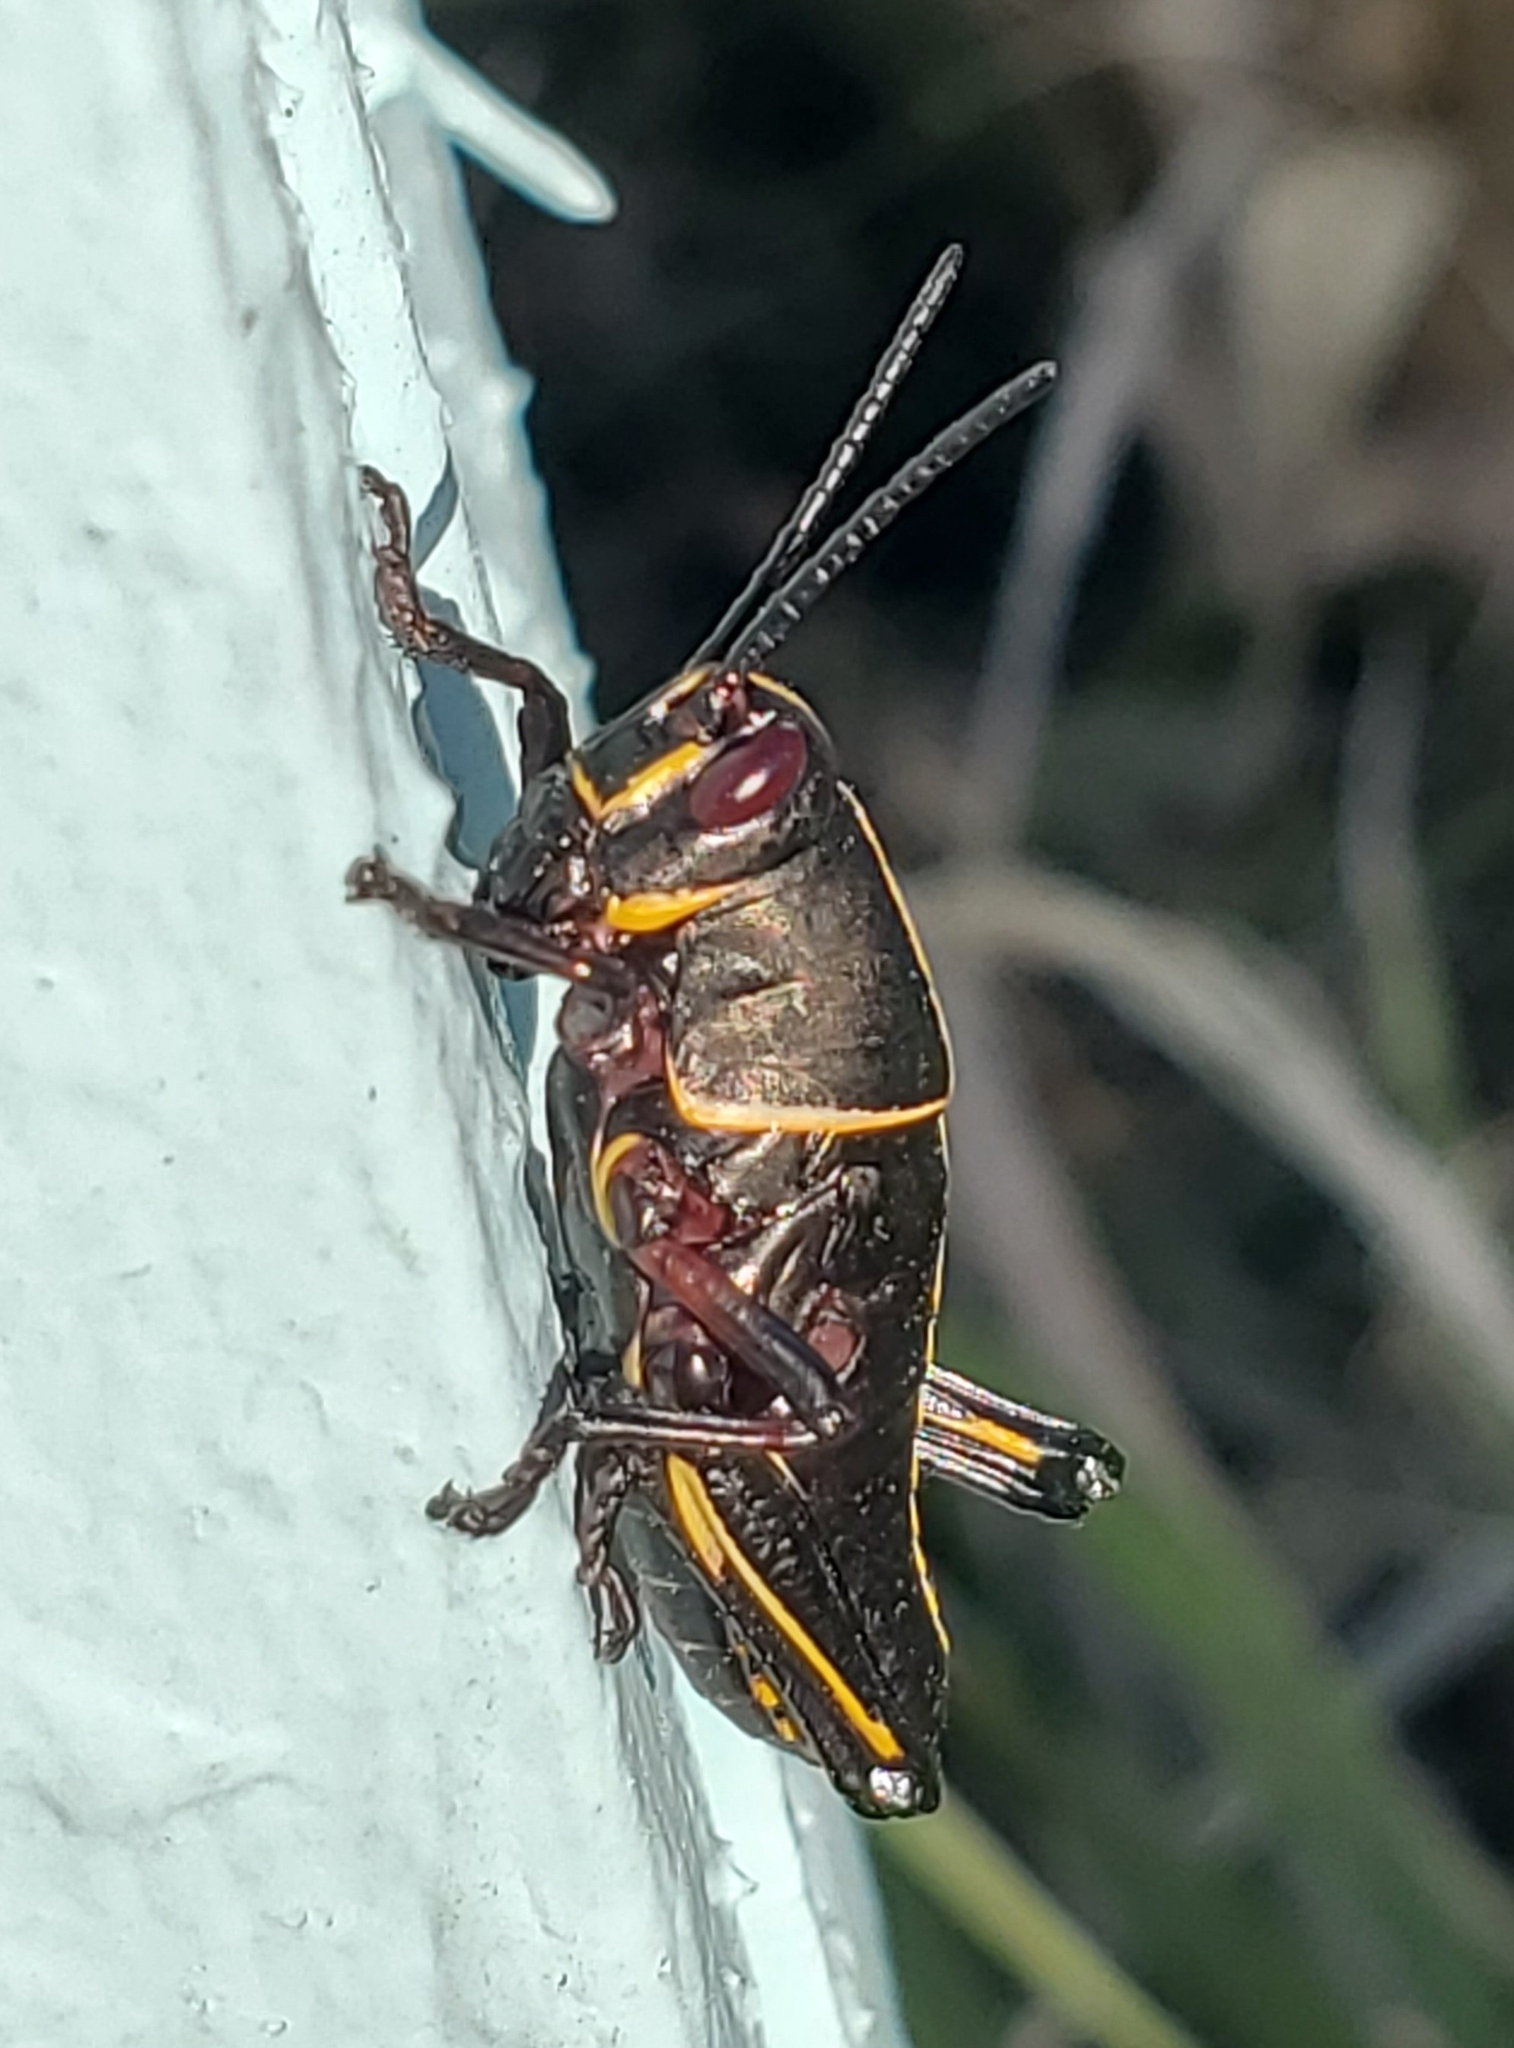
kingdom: Animalia
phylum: Arthropoda
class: Insecta
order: Orthoptera
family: Romaleidae
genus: Romalea
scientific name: Romalea microptera
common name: Eastern lubber grasshopper
